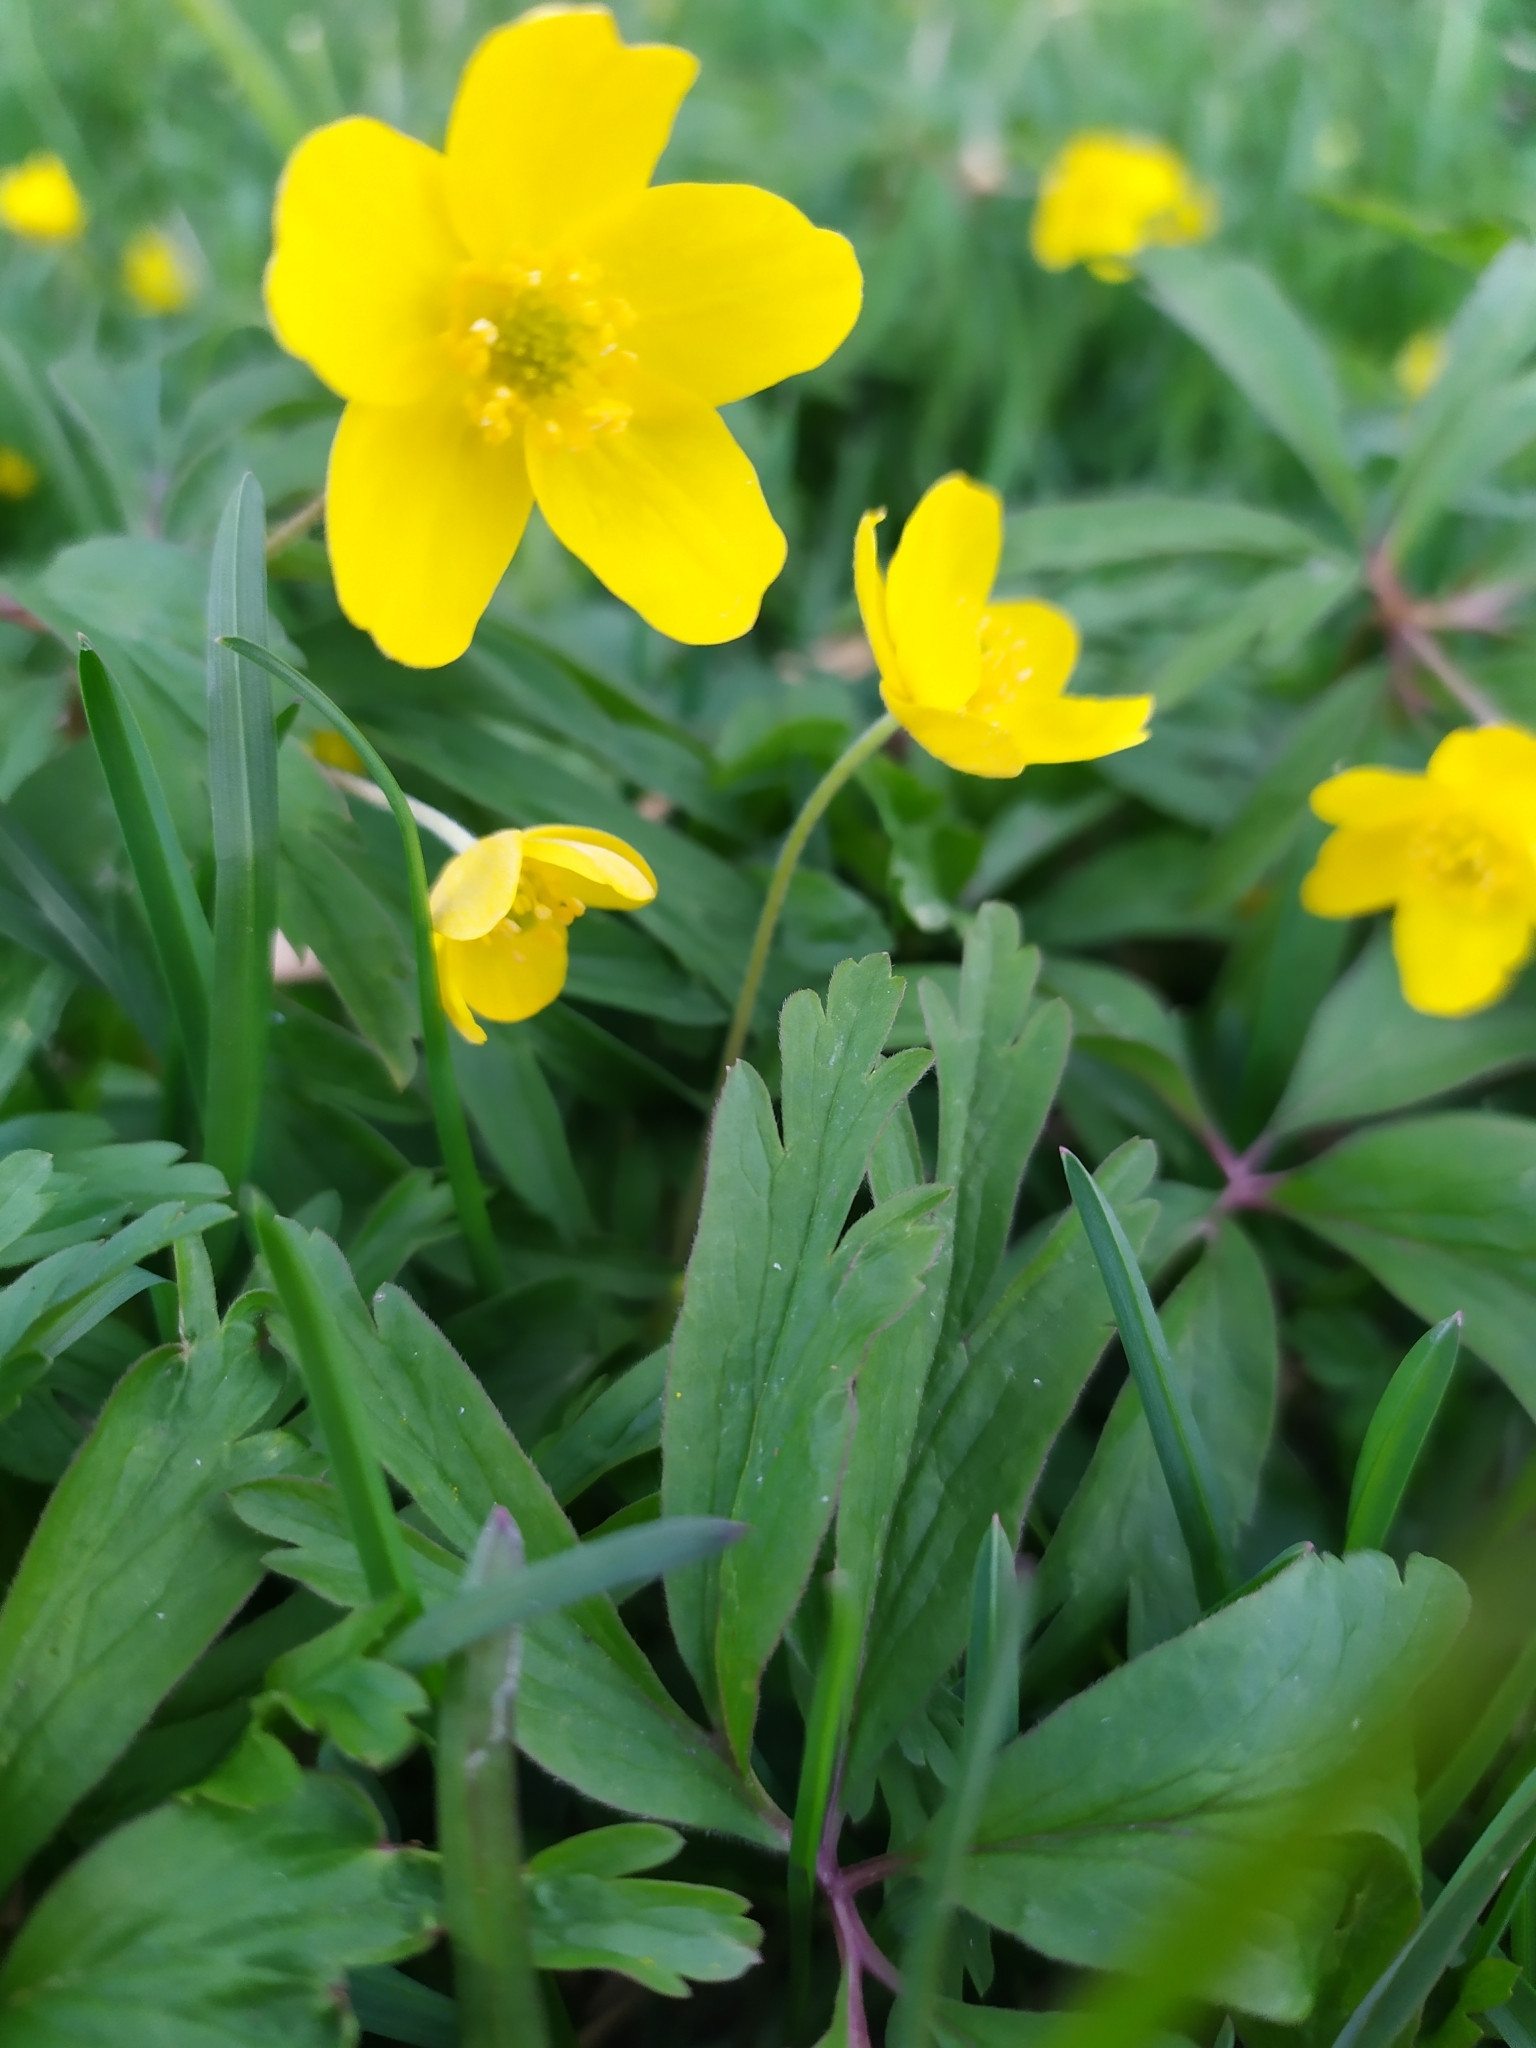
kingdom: Plantae
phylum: Tracheophyta
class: Magnoliopsida
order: Ranunculales
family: Ranunculaceae
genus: Anemone
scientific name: Anemone ranunculoides
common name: Yellow anemone
